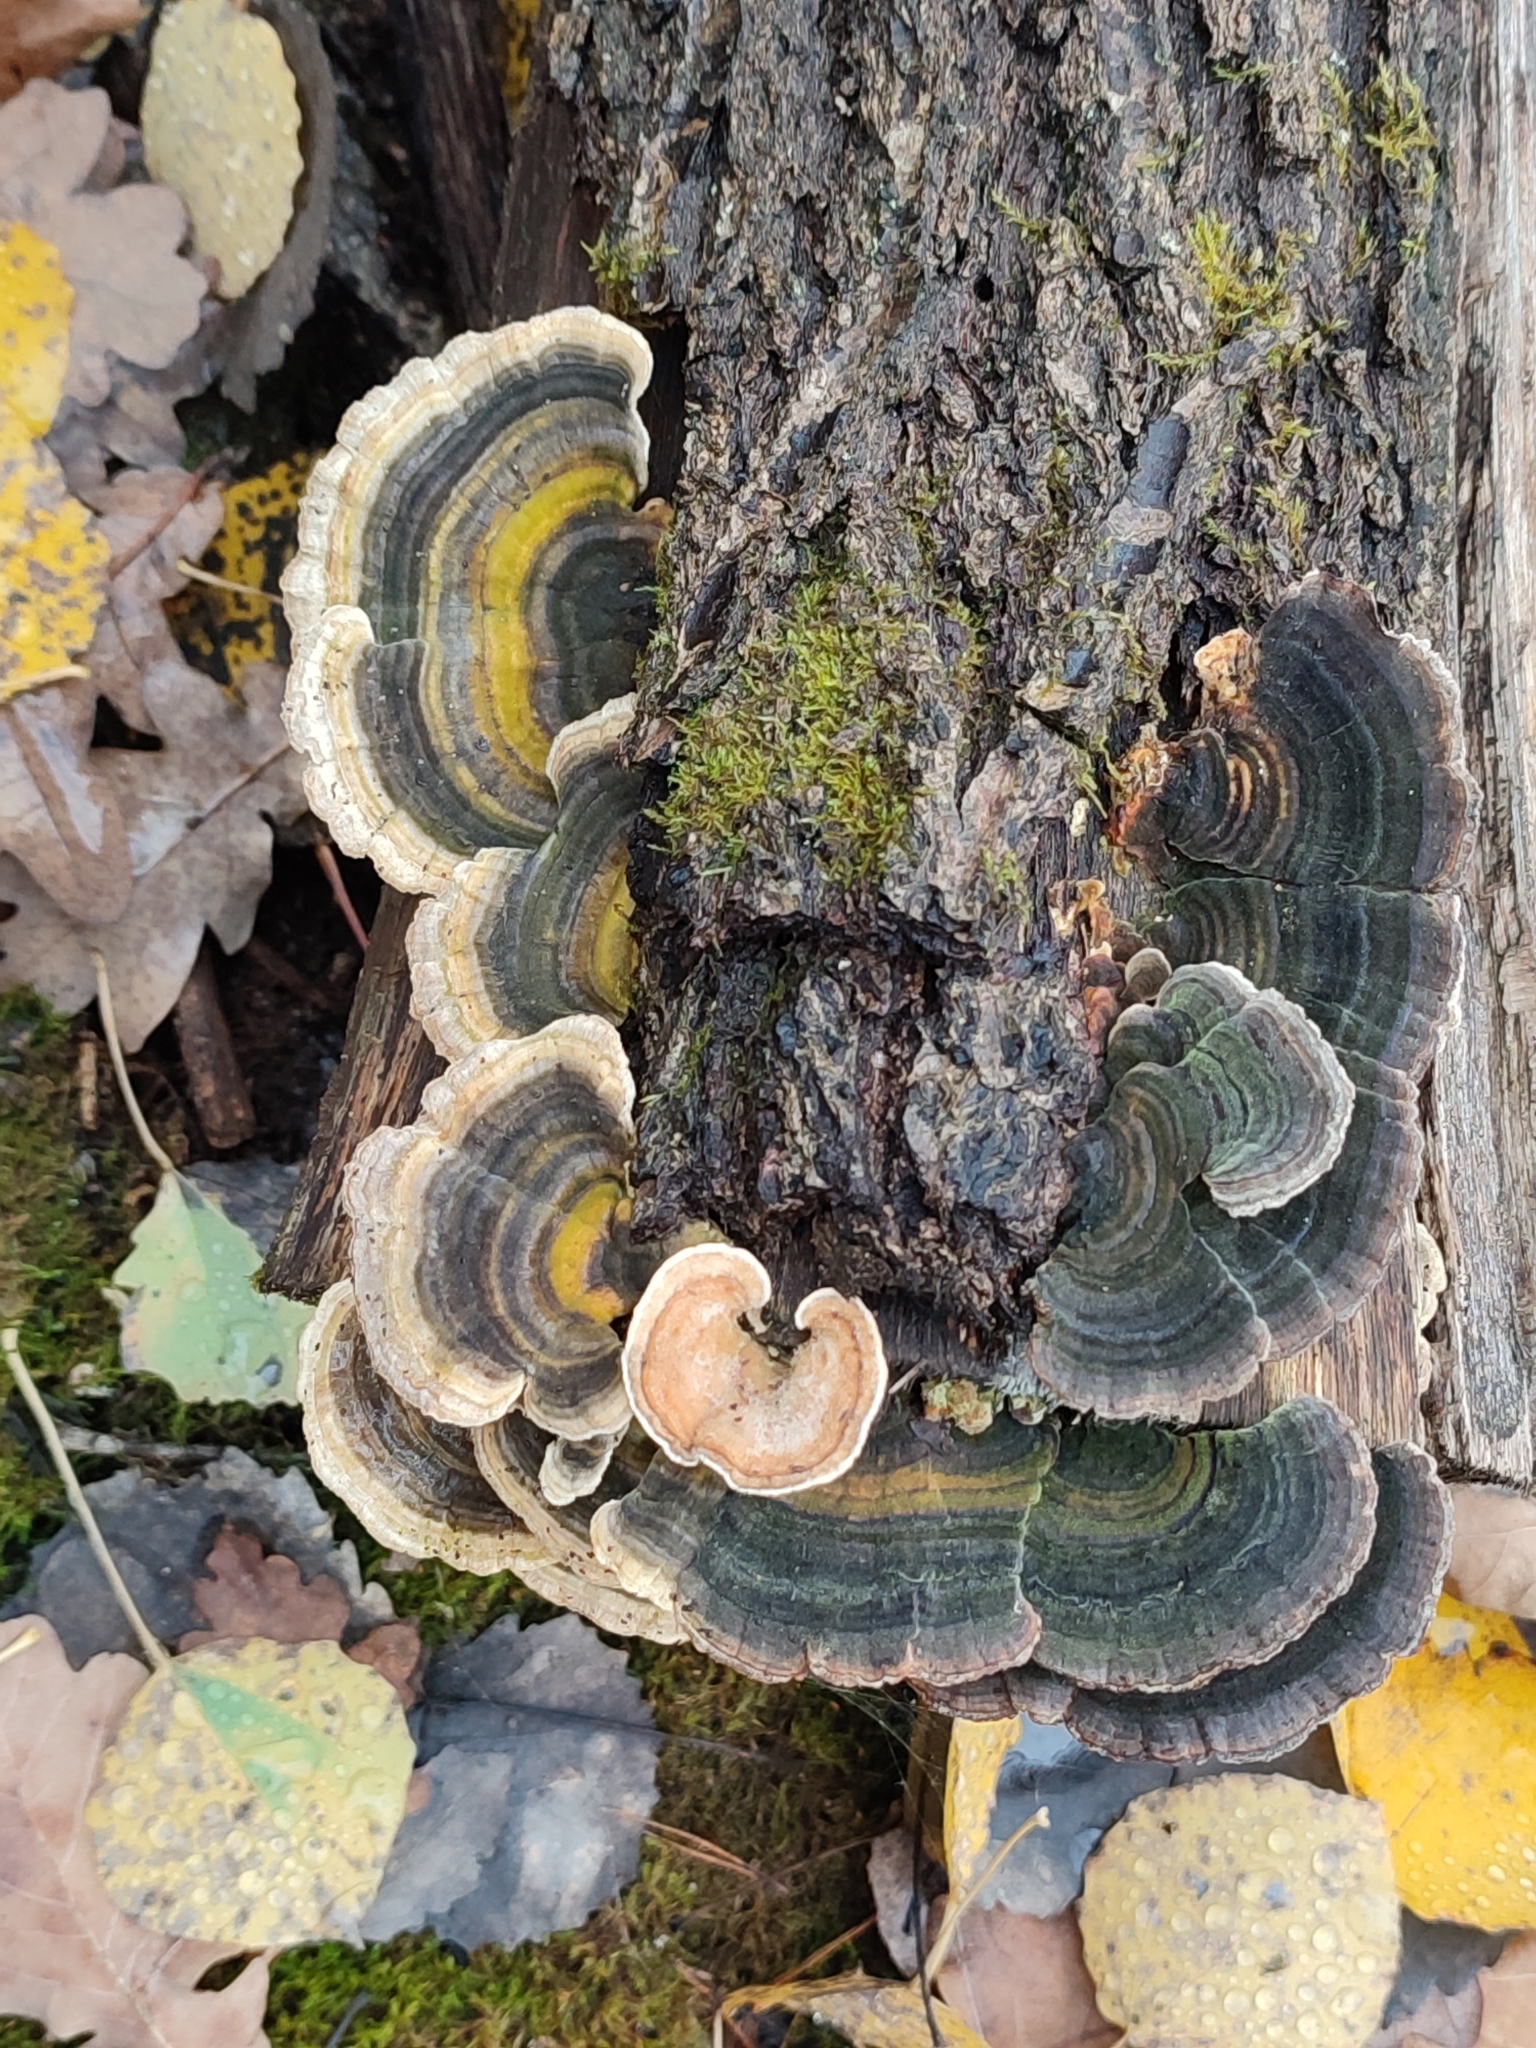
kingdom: Fungi
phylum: Basidiomycota
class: Agaricomycetes
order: Polyporales
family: Polyporaceae
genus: Trametes
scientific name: Trametes versicolor
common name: Turkeytail
